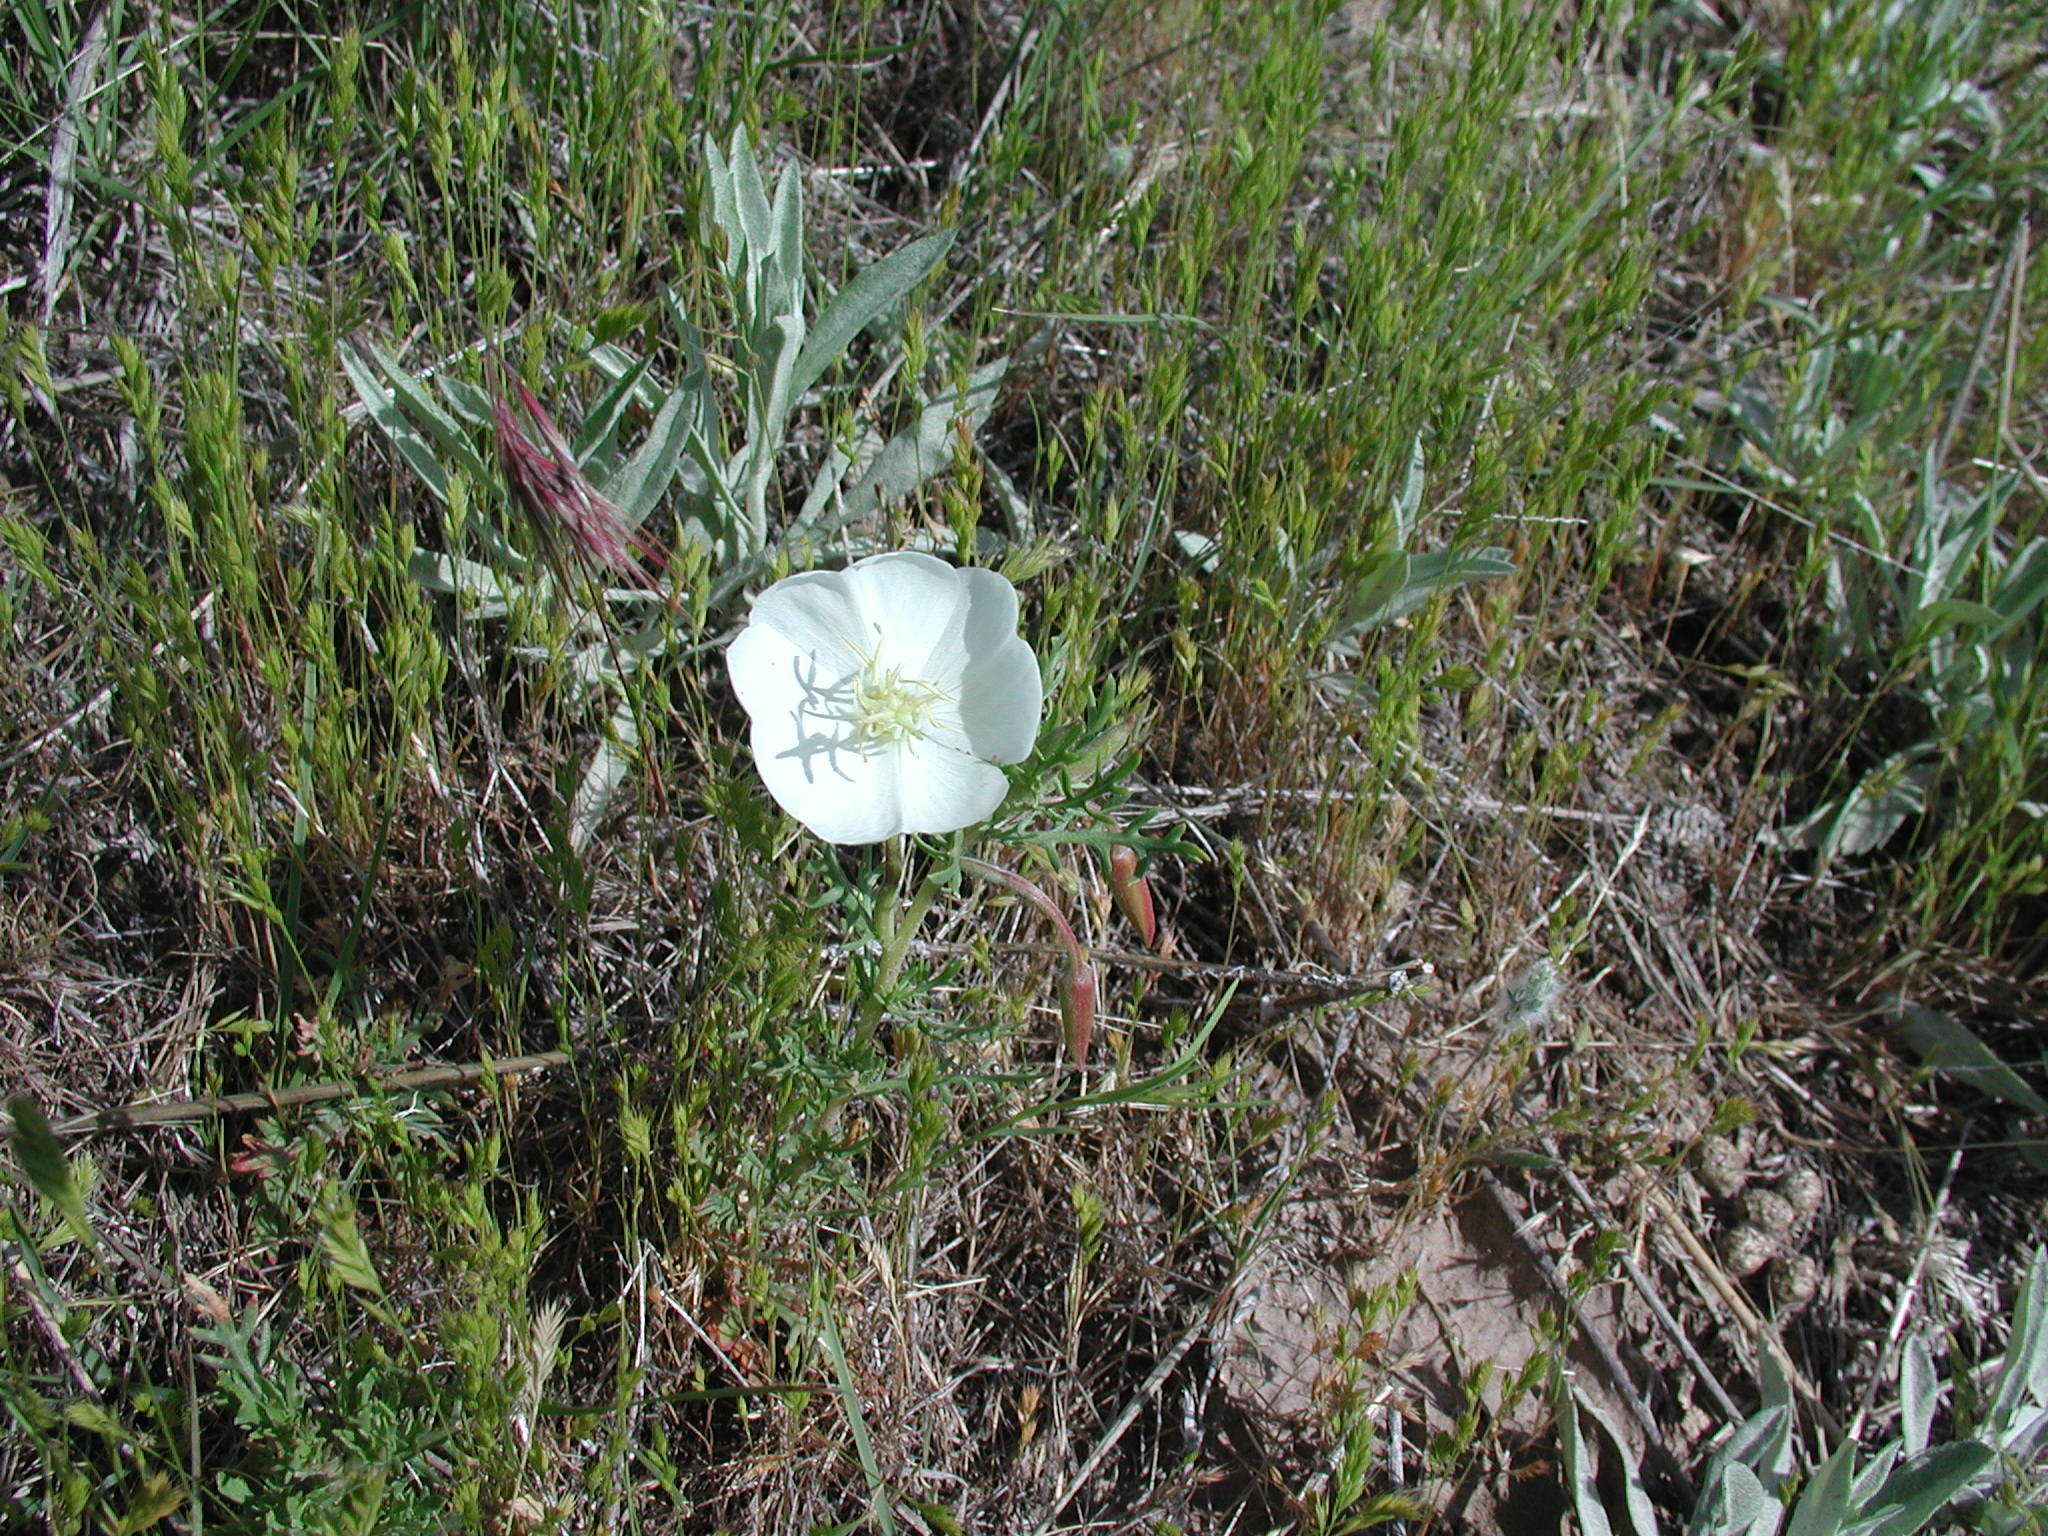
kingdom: Plantae
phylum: Tracheophyta
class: Magnoliopsida
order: Myrtales
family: Onagraceae
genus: Oenothera
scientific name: Oenothera albicaulis
